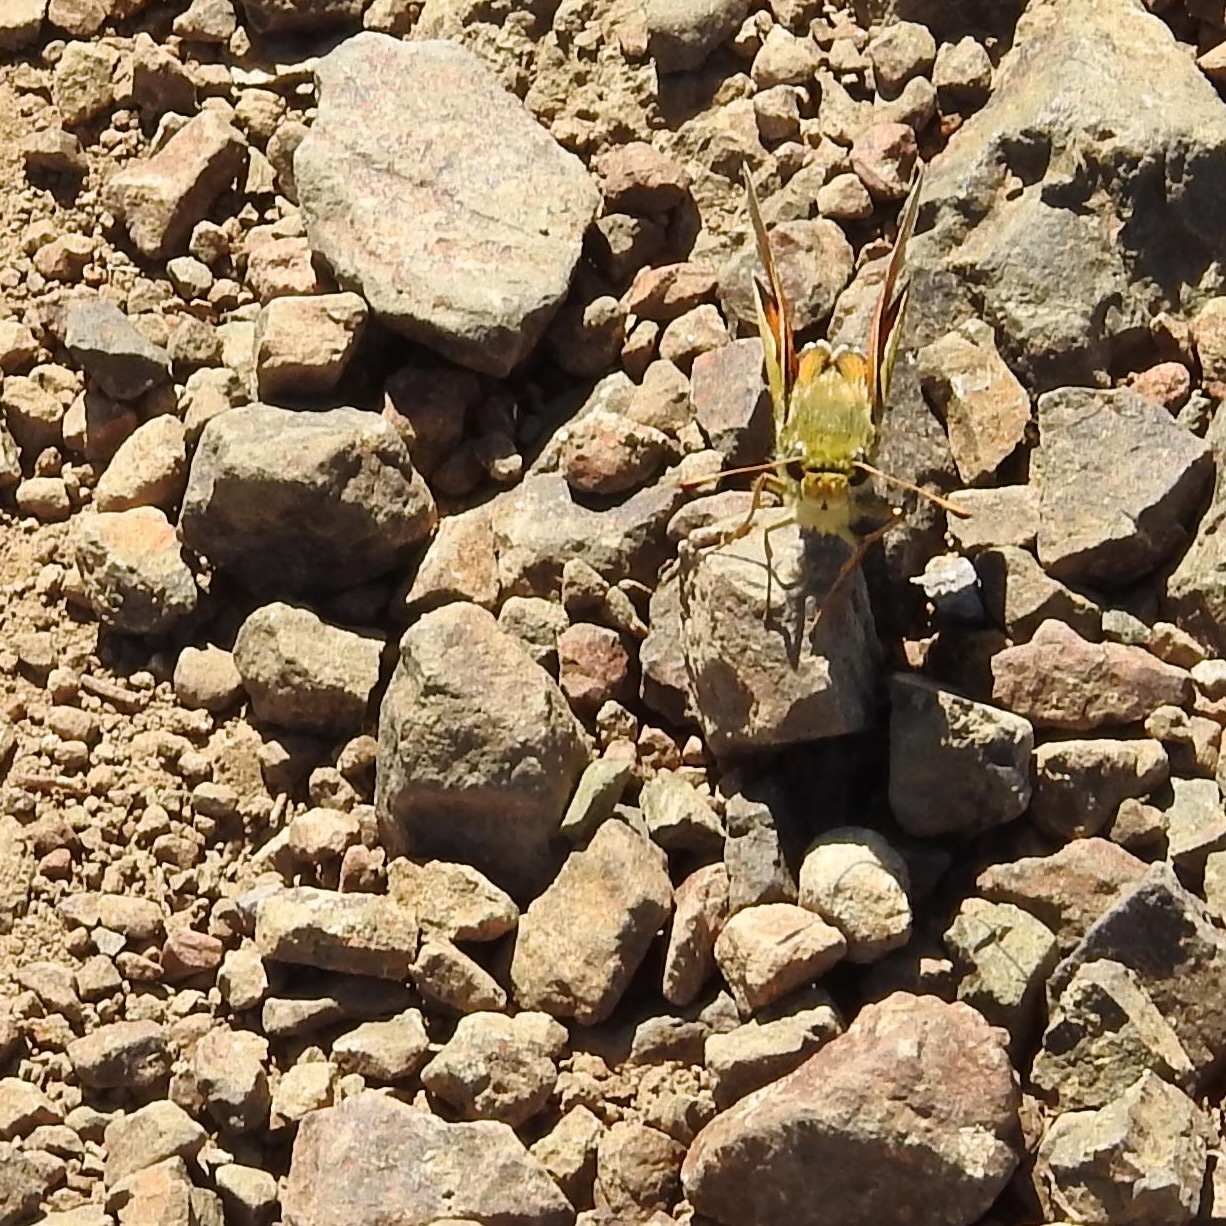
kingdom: Animalia
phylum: Arthropoda
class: Insecta
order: Lepidoptera
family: Hesperiidae
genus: Hesperia
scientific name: Hesperia columbia
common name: Columbian skipper
